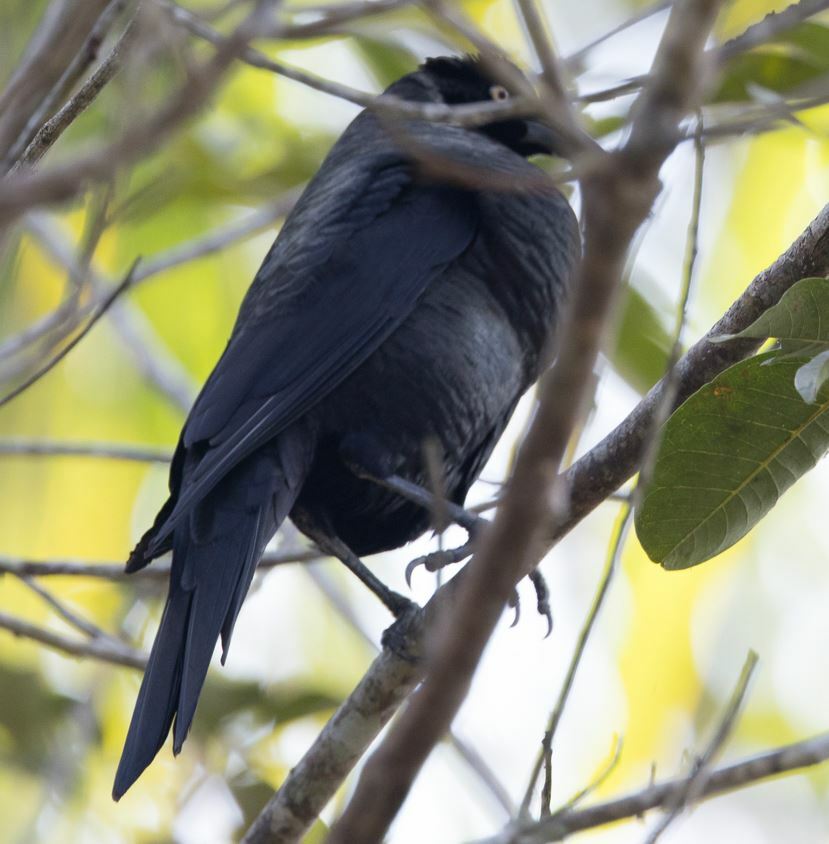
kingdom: Animalia
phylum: Chordata
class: Aves
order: Passeriformes
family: Icteridae
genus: Molothrus
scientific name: Molothrus oryzivorus
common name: Giant cowbird
